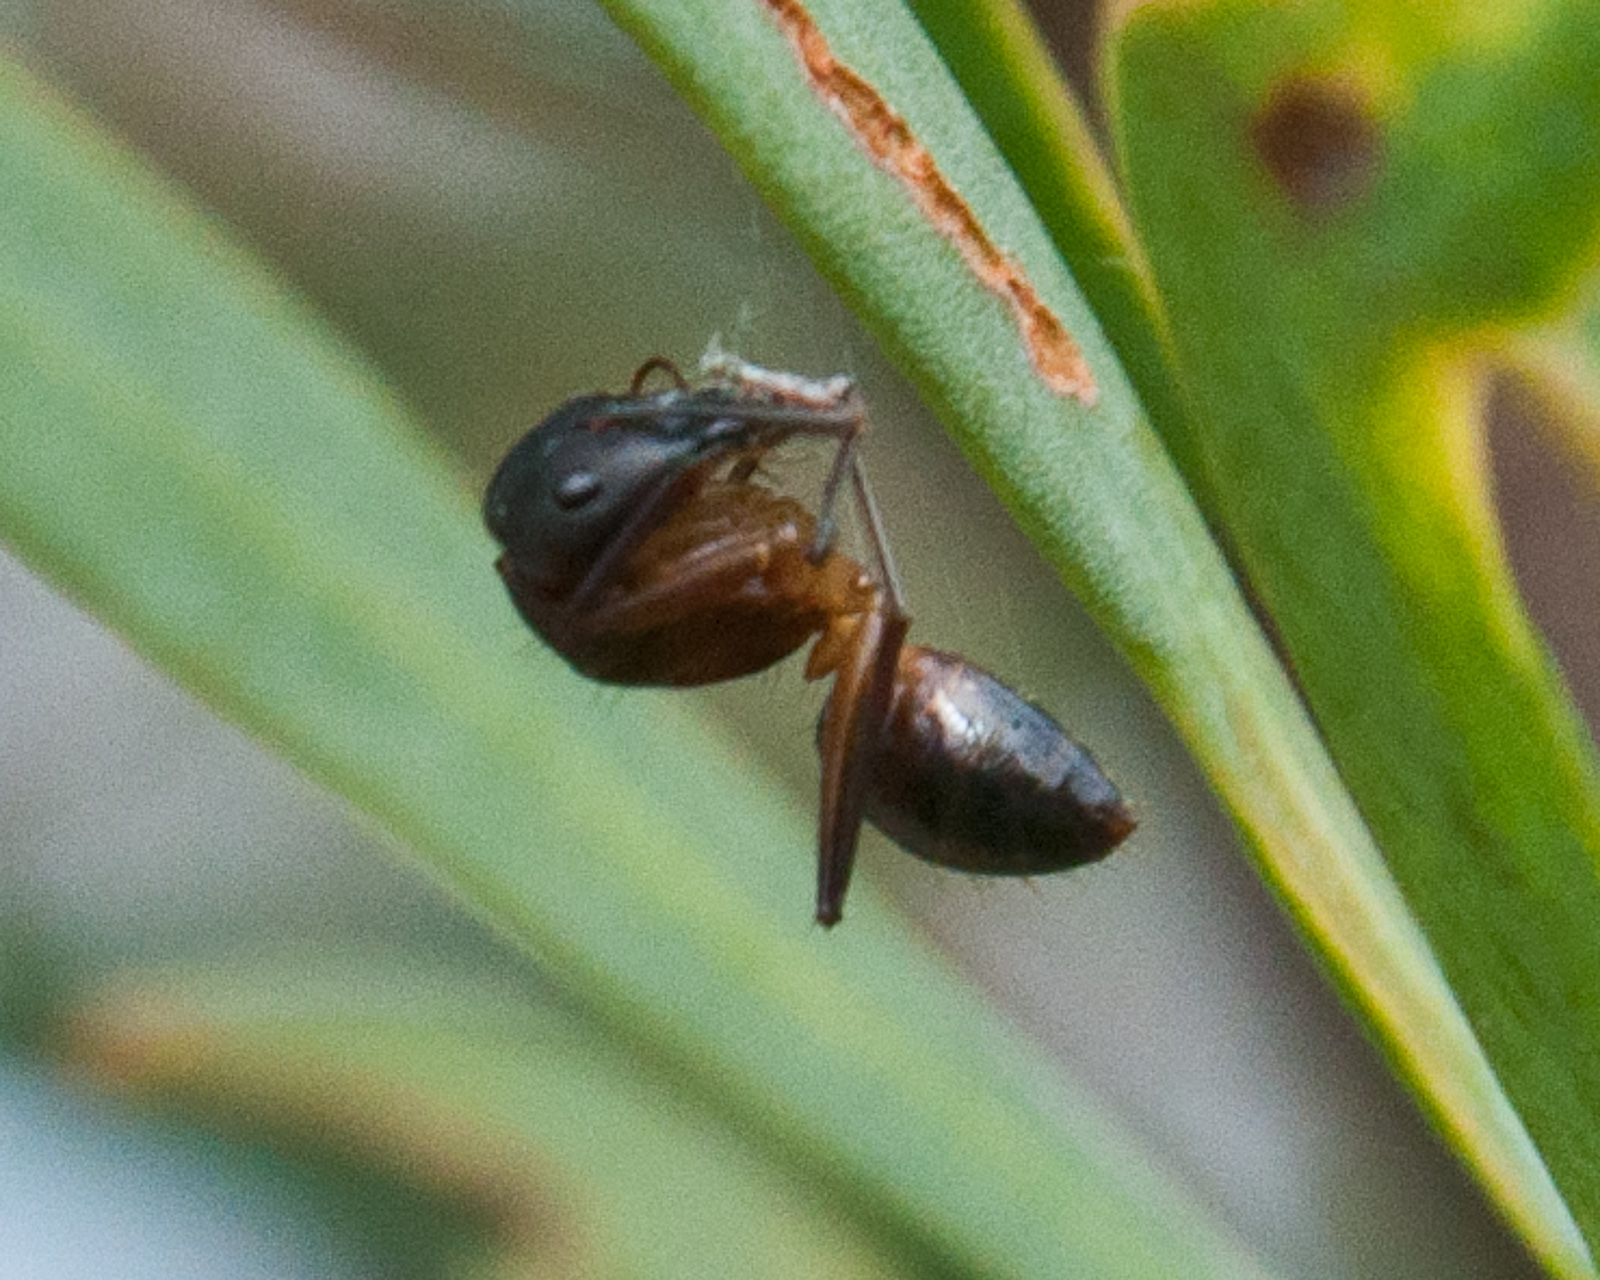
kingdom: Animalia
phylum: Arthropoda
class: Insecta
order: Hymenoptera
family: Formicidae
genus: Camponotus
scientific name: Camponotus maculatus
